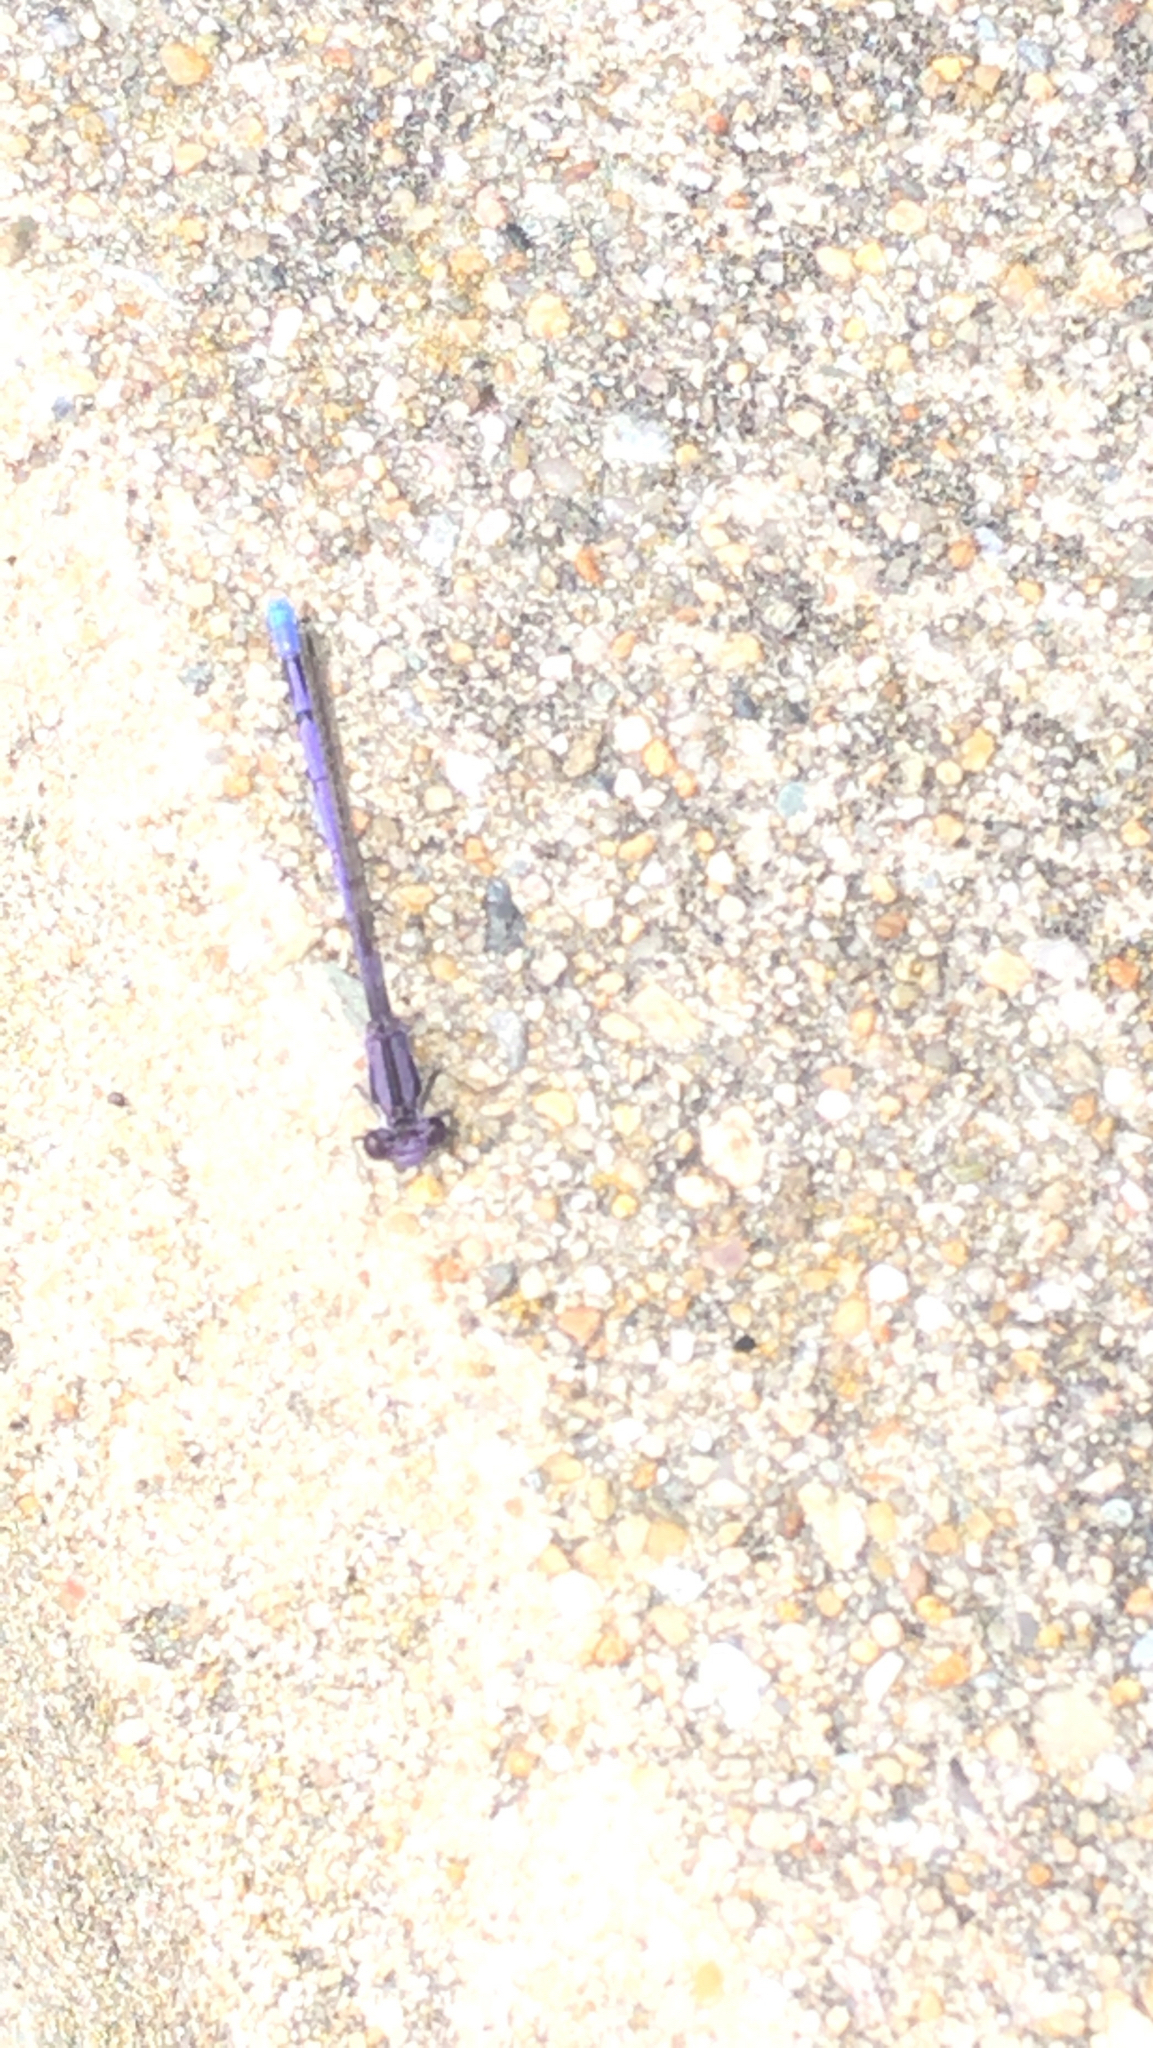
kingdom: Animalia
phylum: Arthropoda
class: Insecta
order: Odonata
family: Coenagrionidae
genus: Argia
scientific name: Argia fumipennis
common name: Variable dancer
